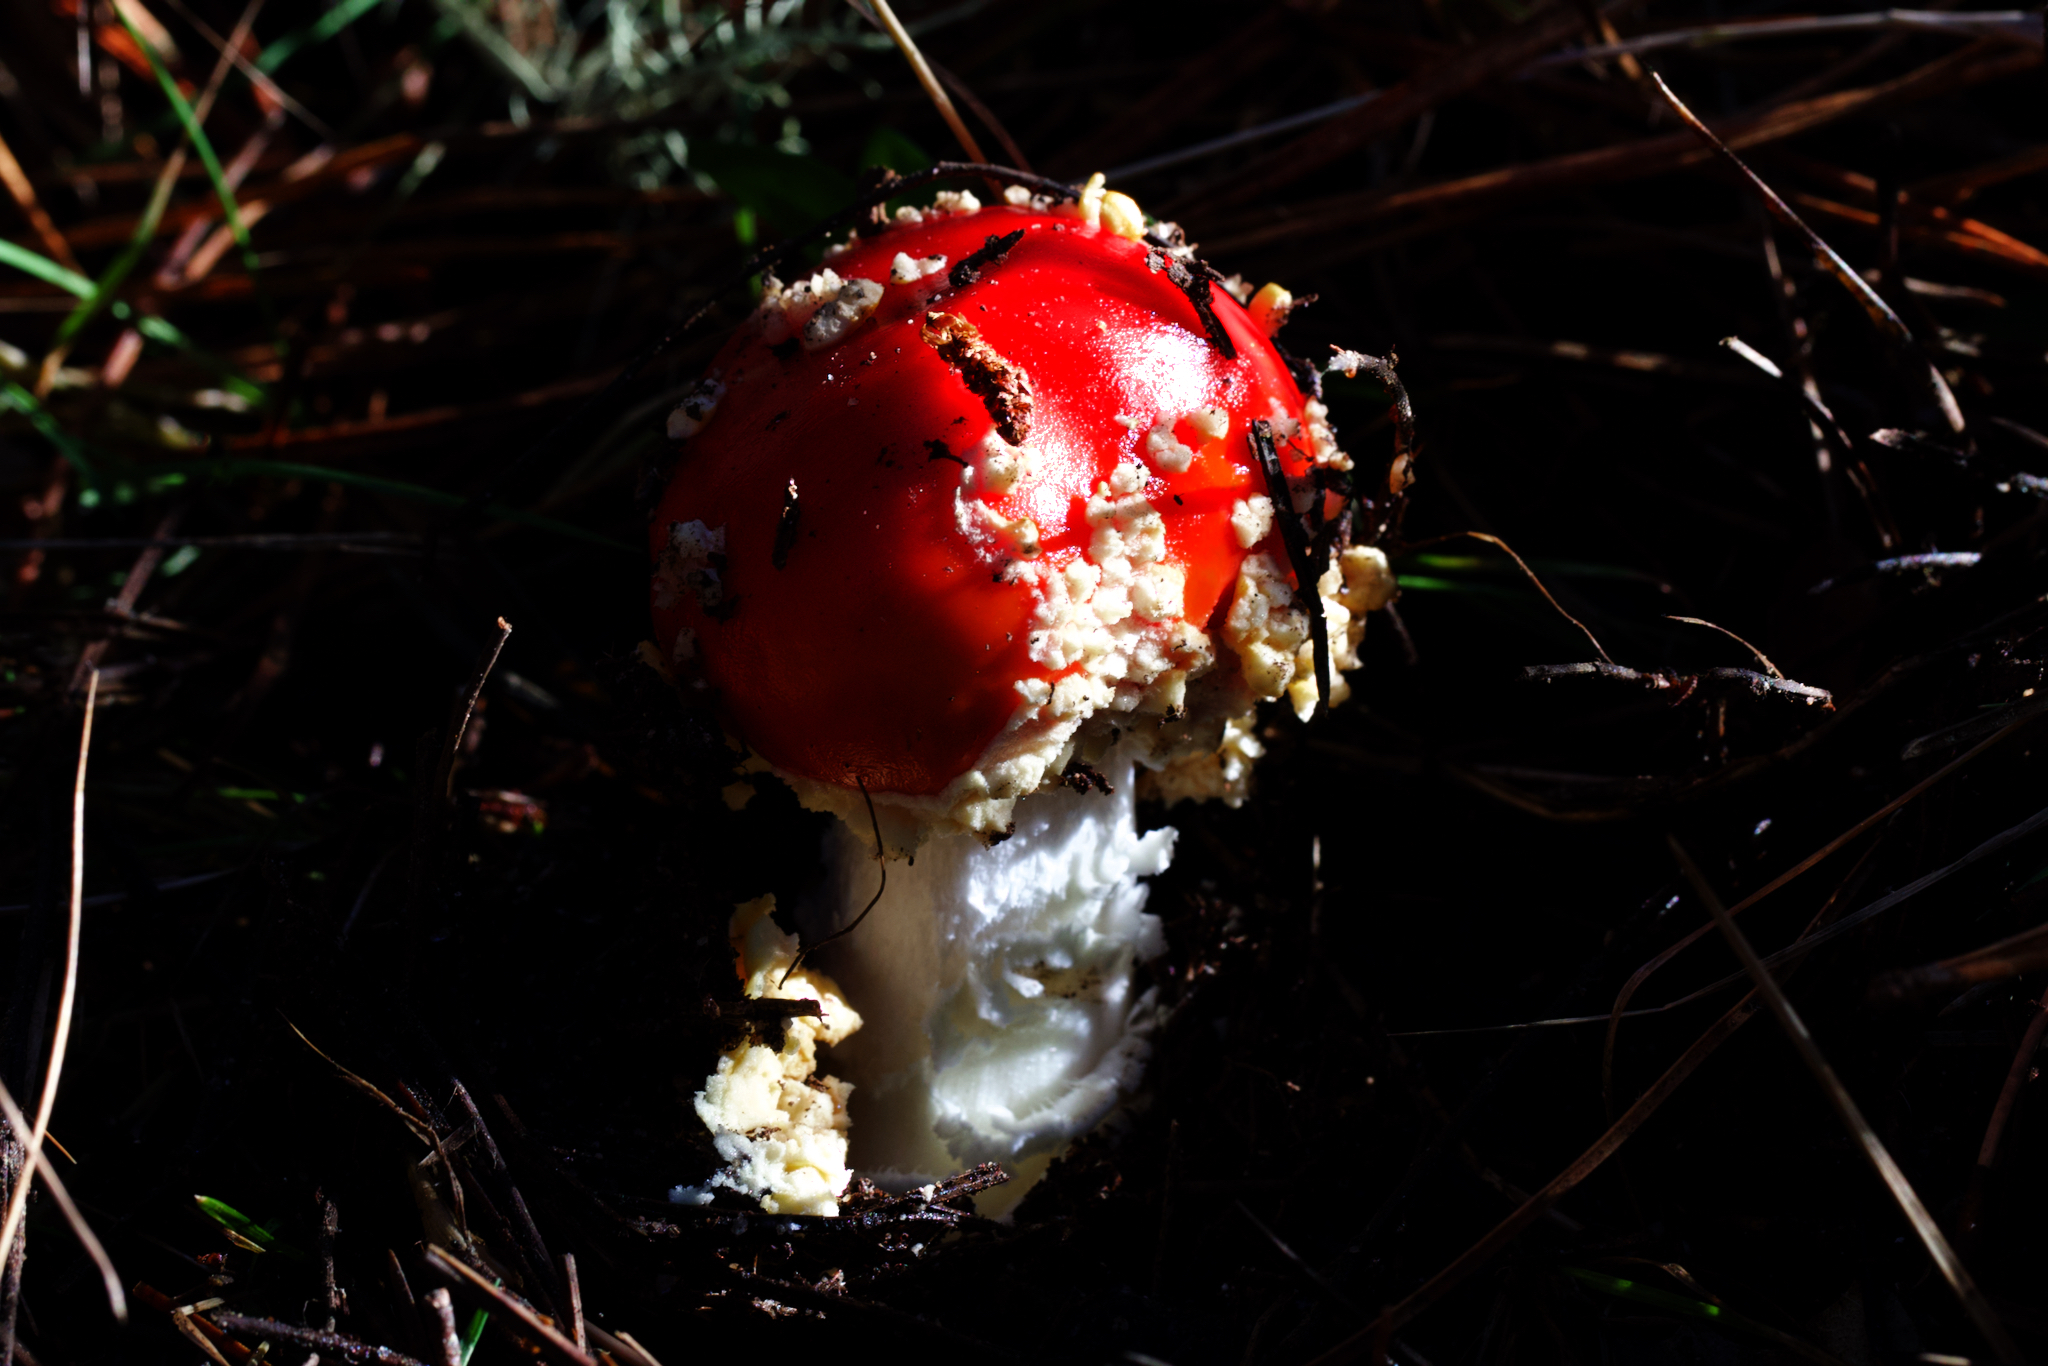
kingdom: Fungi
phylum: Basidiomycota
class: Agaricomycetes
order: Agaricales
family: Amanitaceae
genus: Amanita
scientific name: Amanita muscaria
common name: Fly agaric
